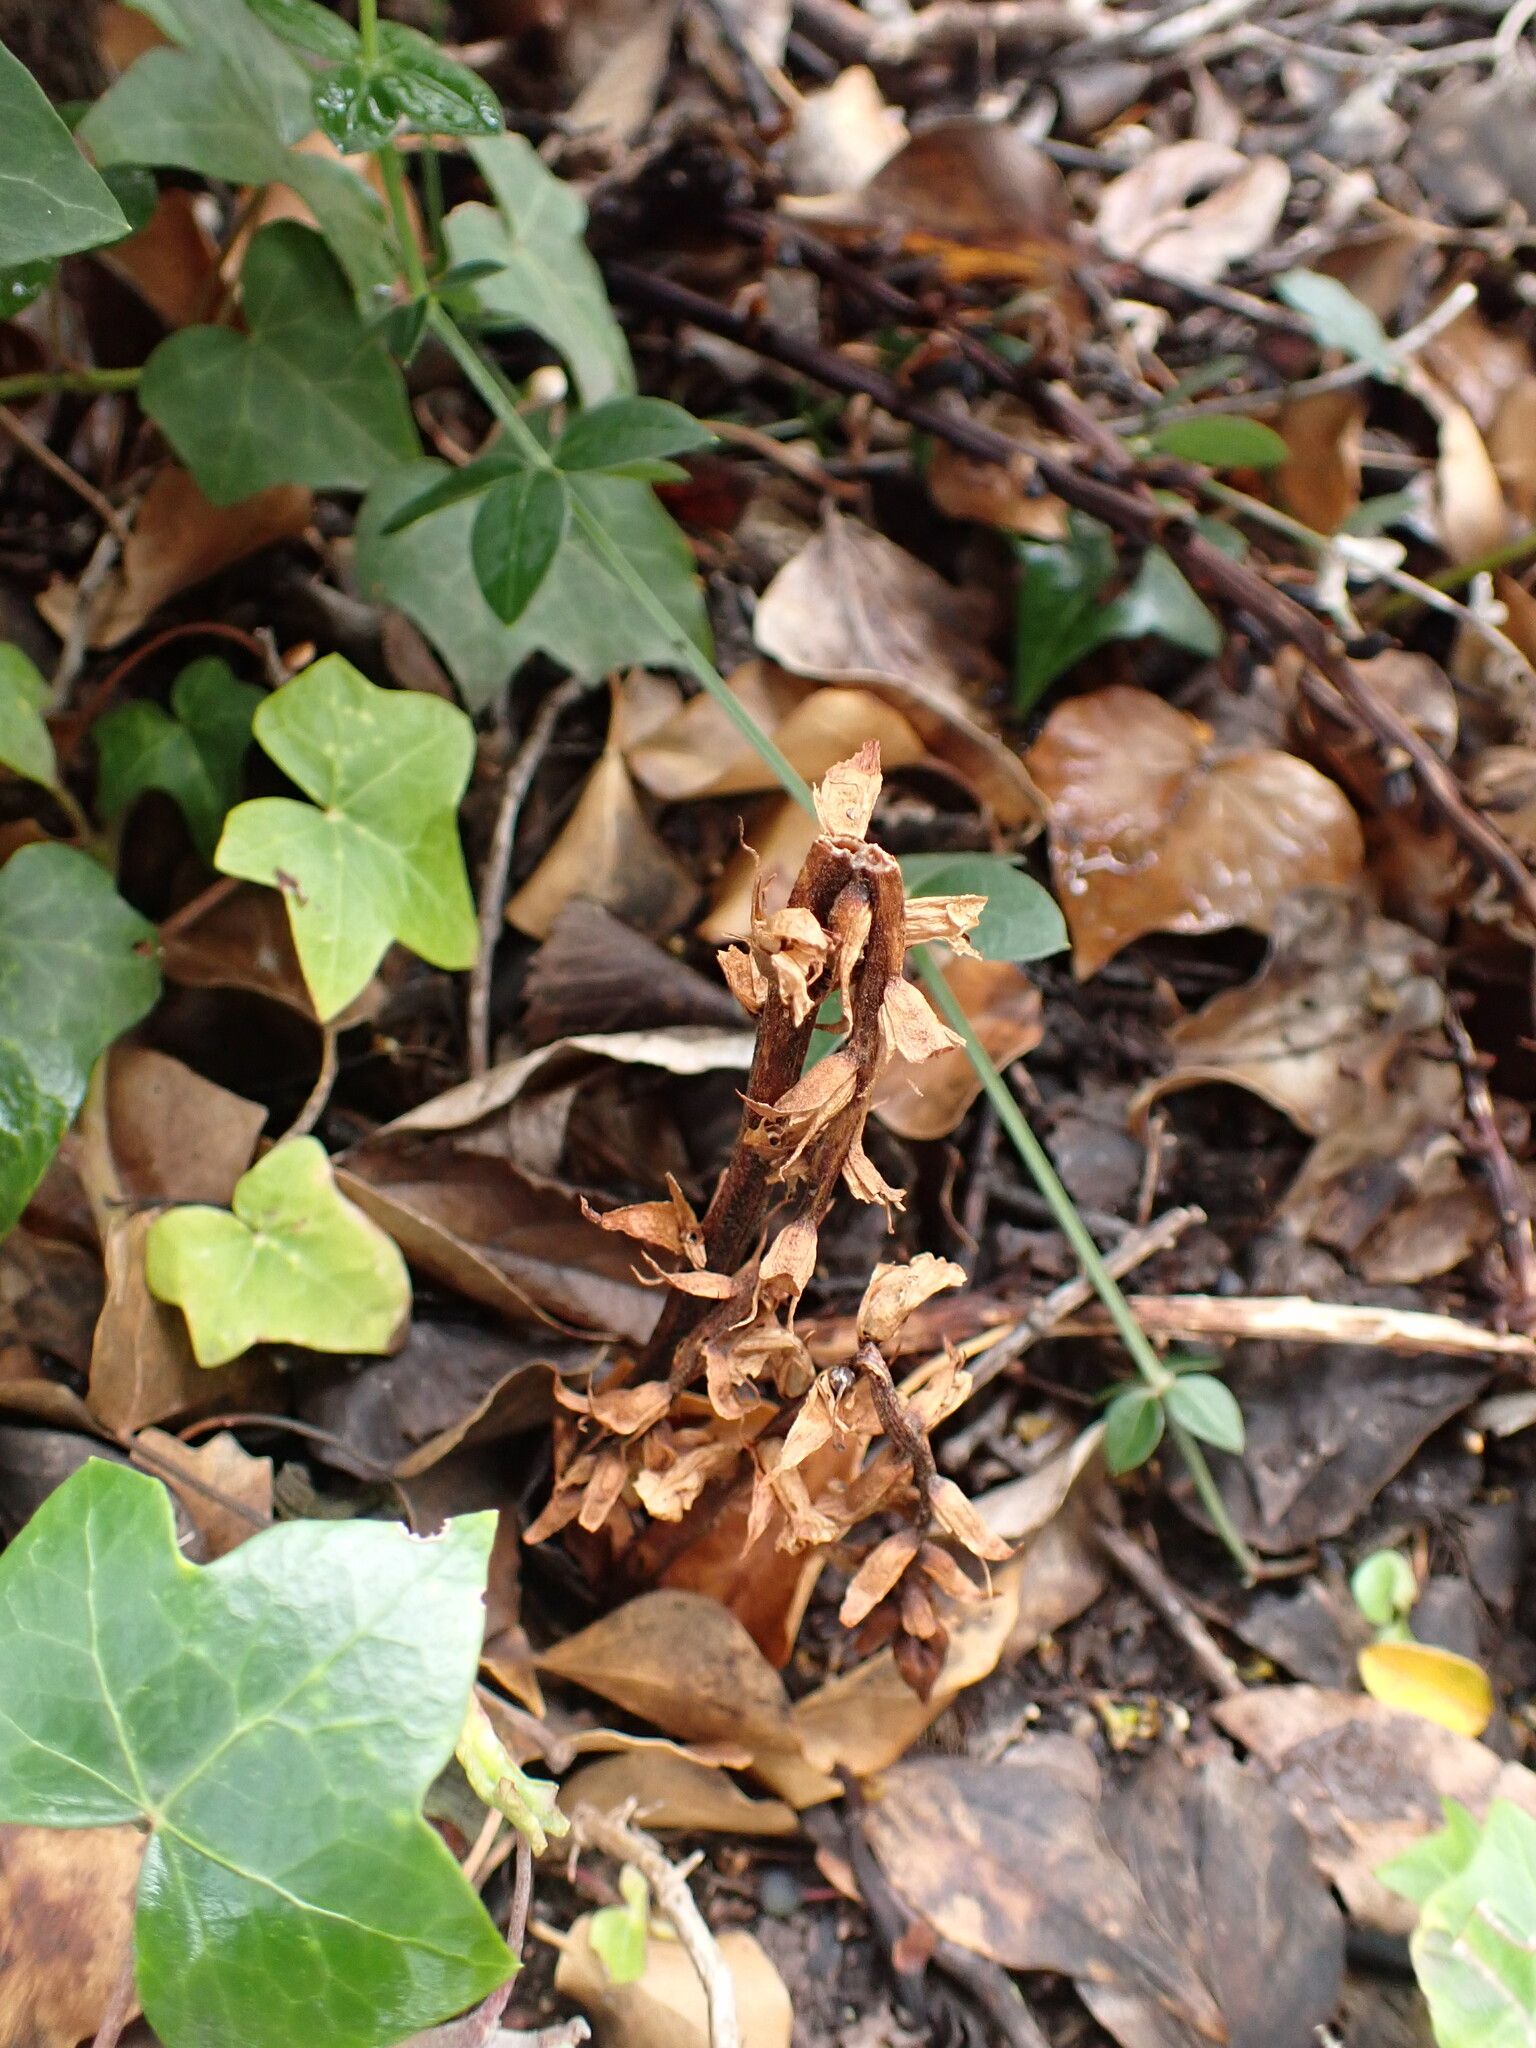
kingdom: Plantae
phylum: Tracheophyta
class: Magnoliopsida
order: Lamiales
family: Orobanchaceae
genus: Orobanche
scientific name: Orobanche hederae
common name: Ivy broomrape
